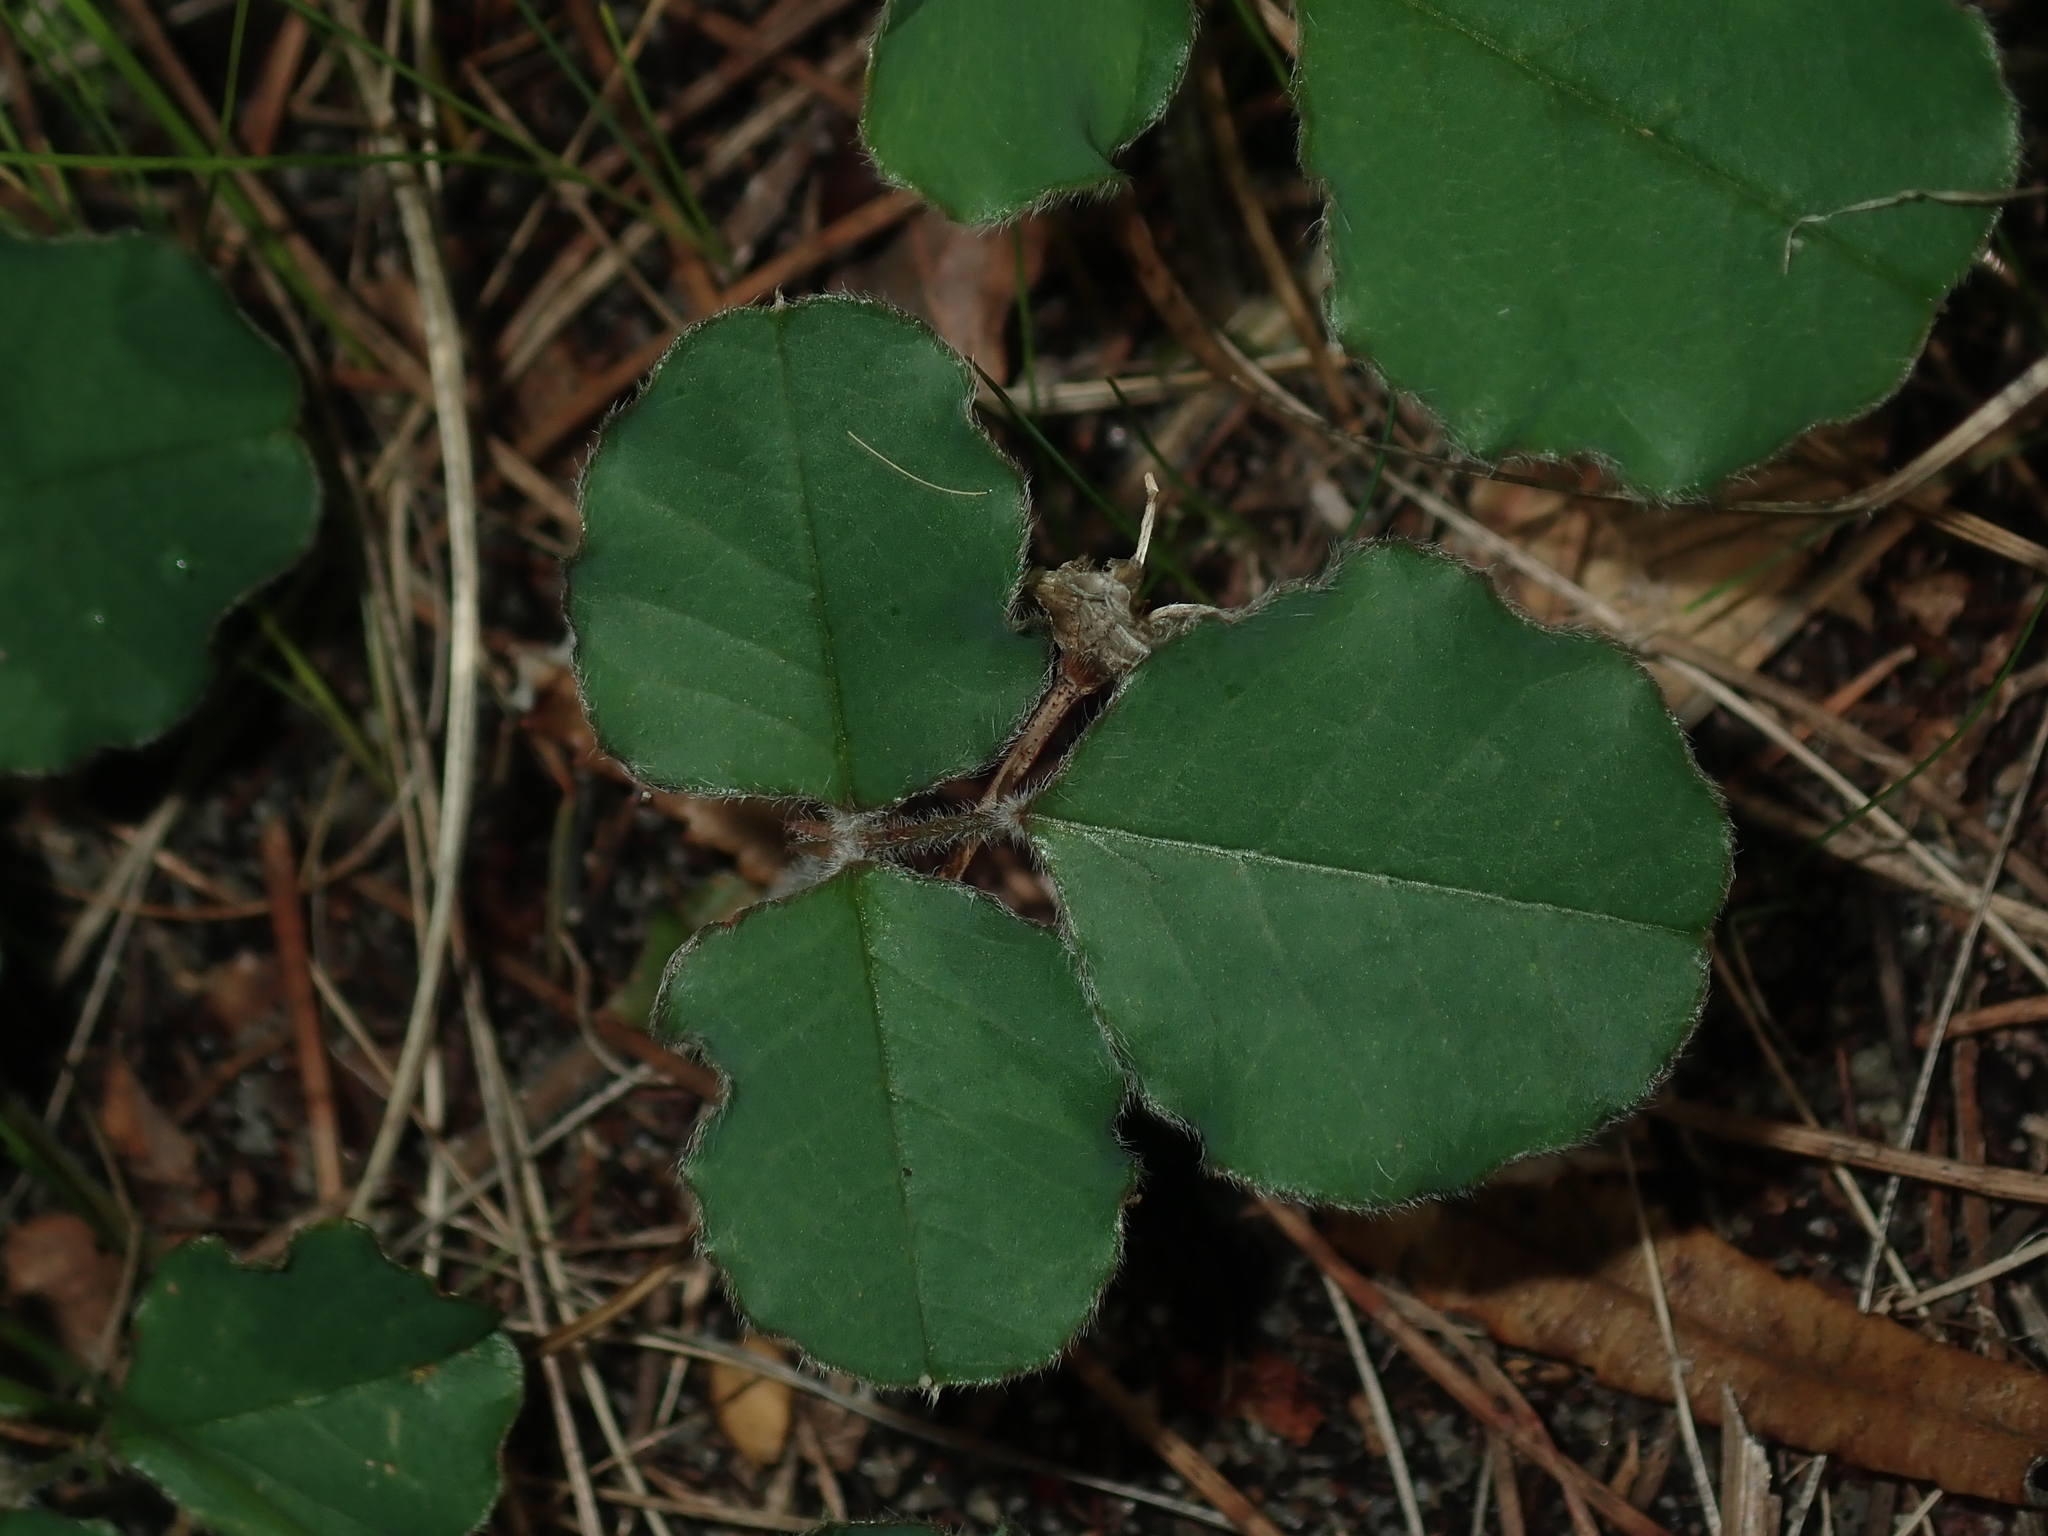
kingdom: Plantae
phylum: Tracheophyta
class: Magnoliopsida
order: Fabales
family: Fabaceae
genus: Kennedia
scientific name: Kennedia prostrata
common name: Running-postman
